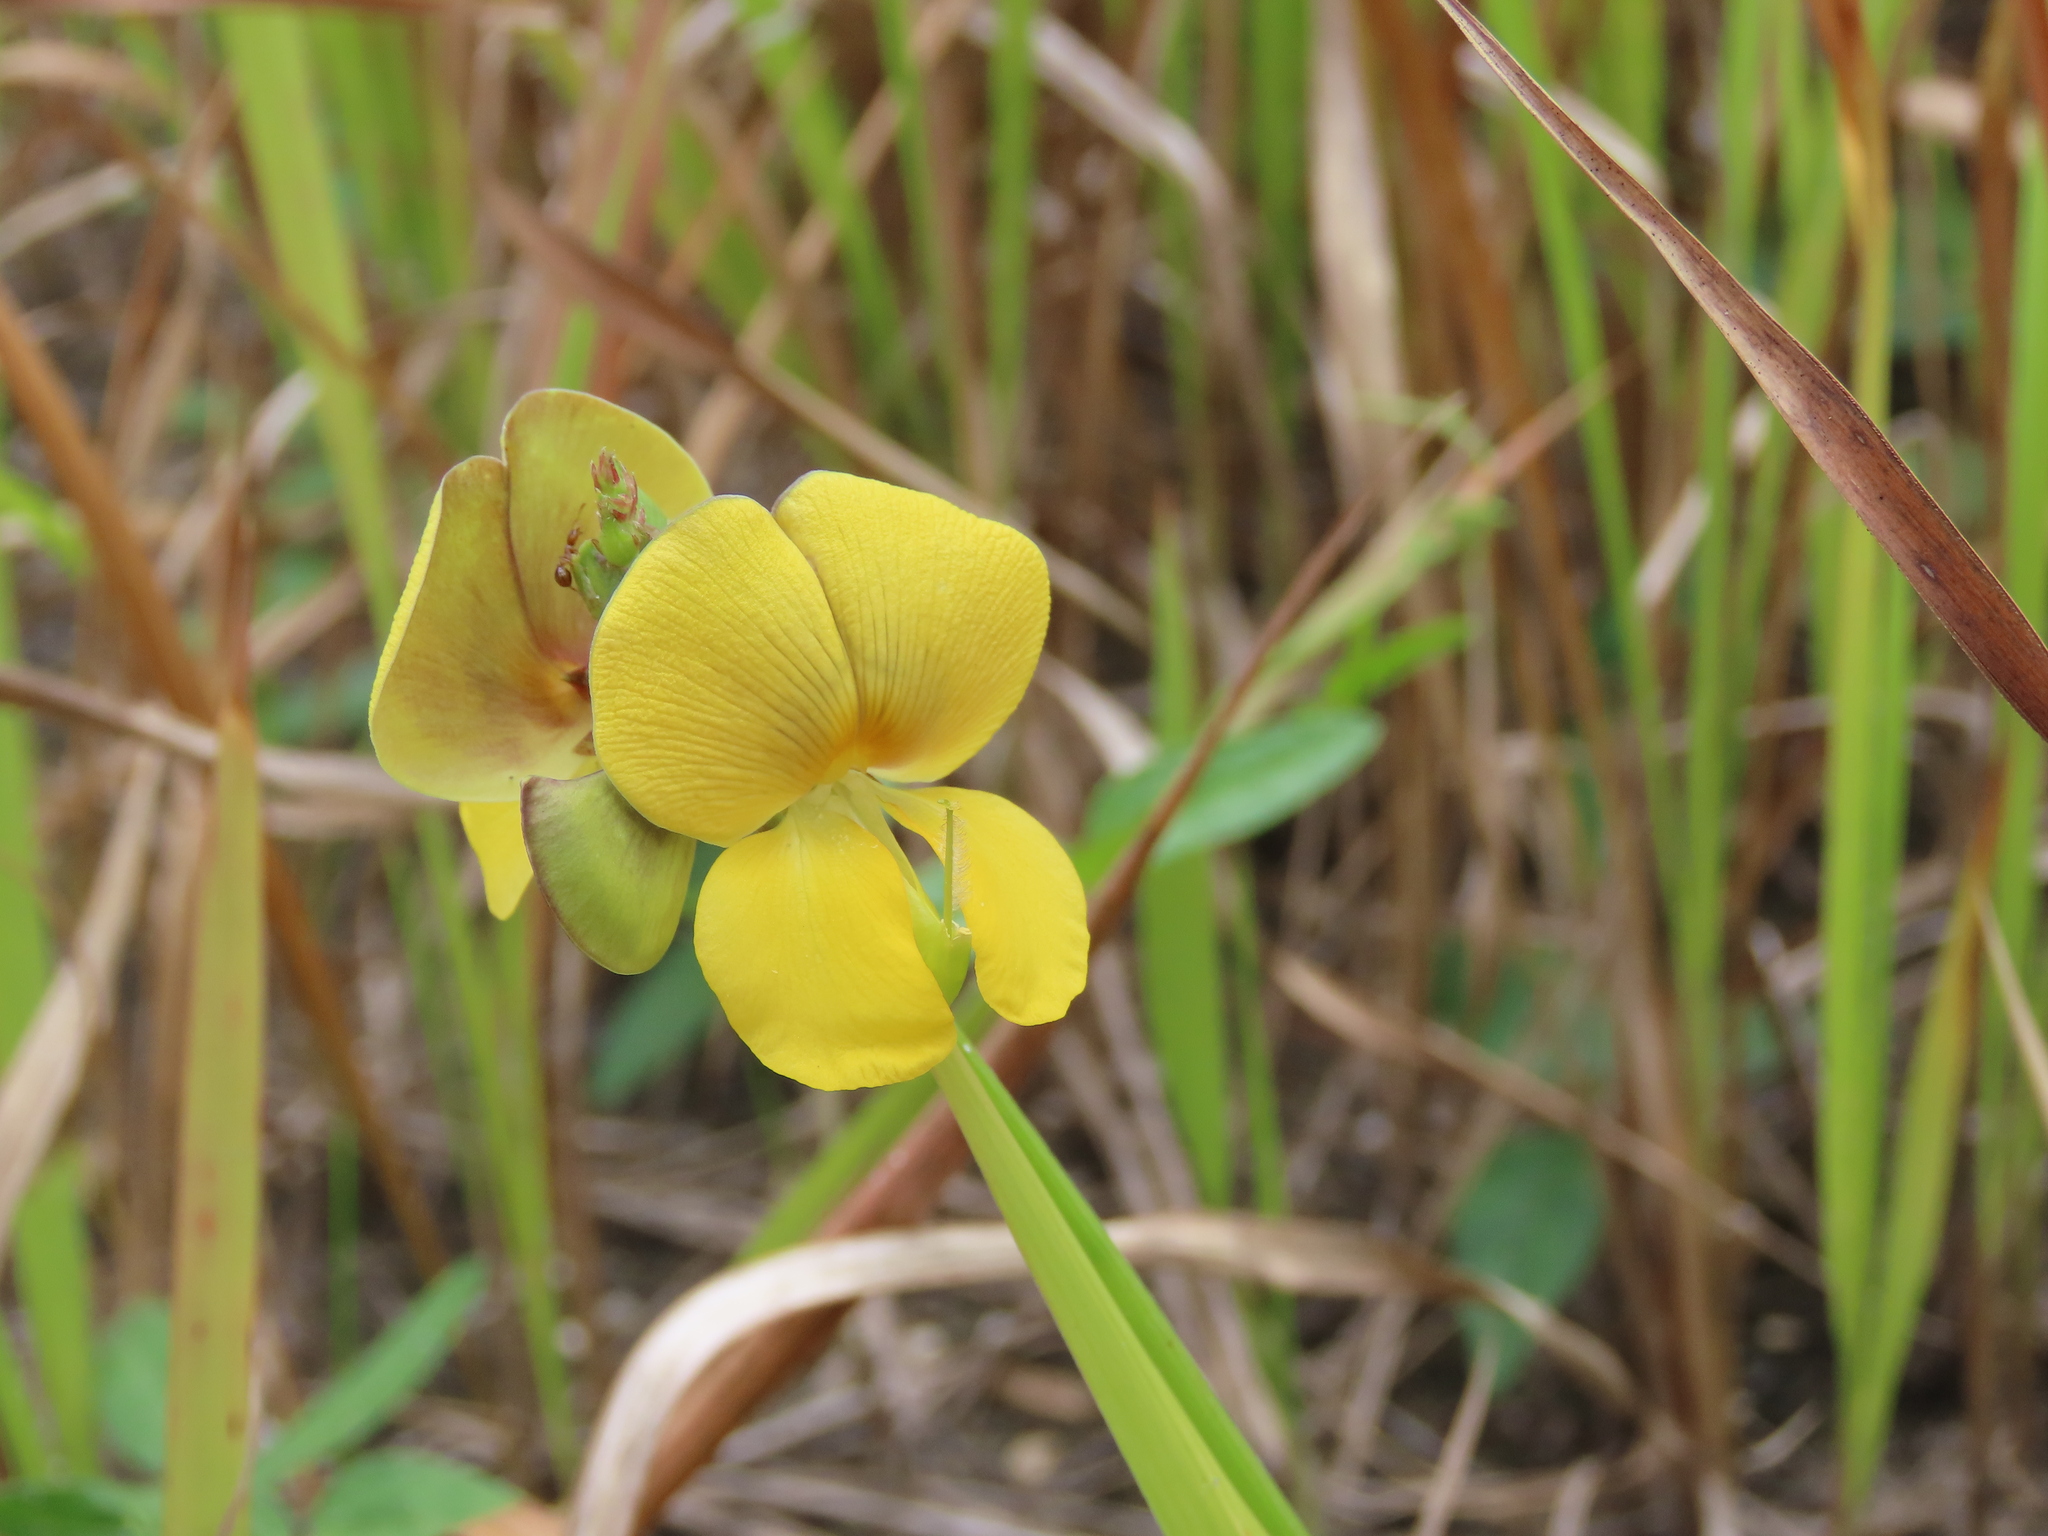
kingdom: Plantae
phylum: Tracheophyta
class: Magnoliopsida
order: Fabales
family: Fabaceae
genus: Vigna
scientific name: Vigna luteola
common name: Hairypod cowpea
